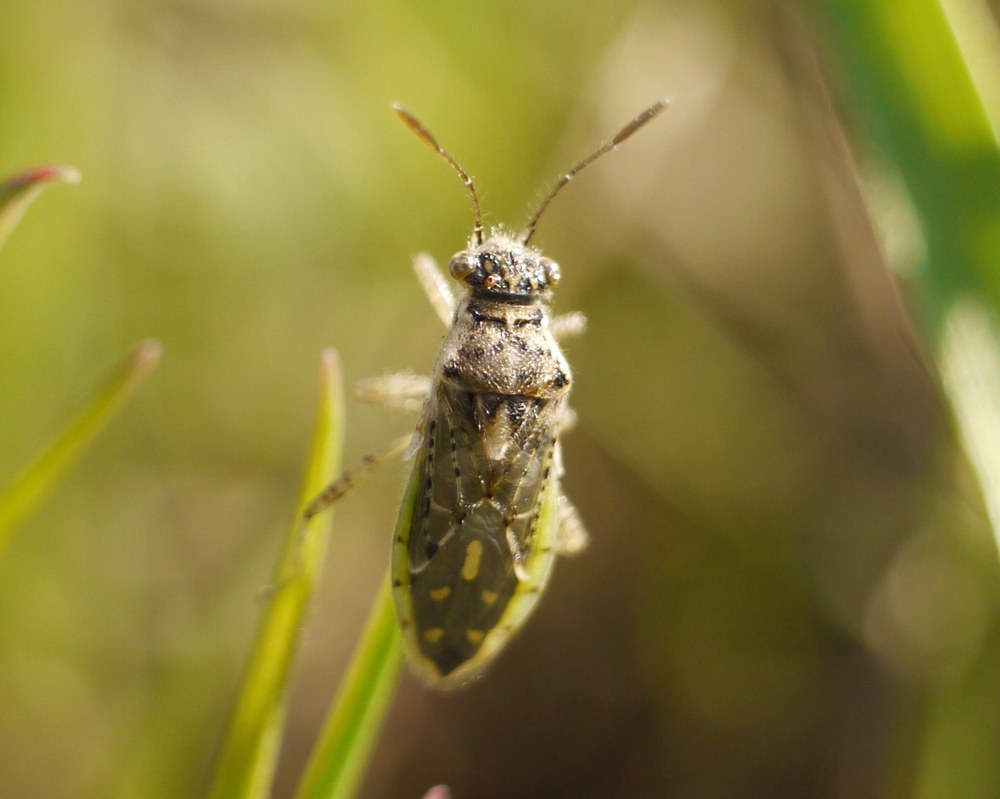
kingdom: Animalia
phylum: Arthropoda
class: Insecta
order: Hemiptera
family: Rhopalidae
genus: Brachycarenus
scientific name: Brachycarenus tigrinus
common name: Scentless plant bug
